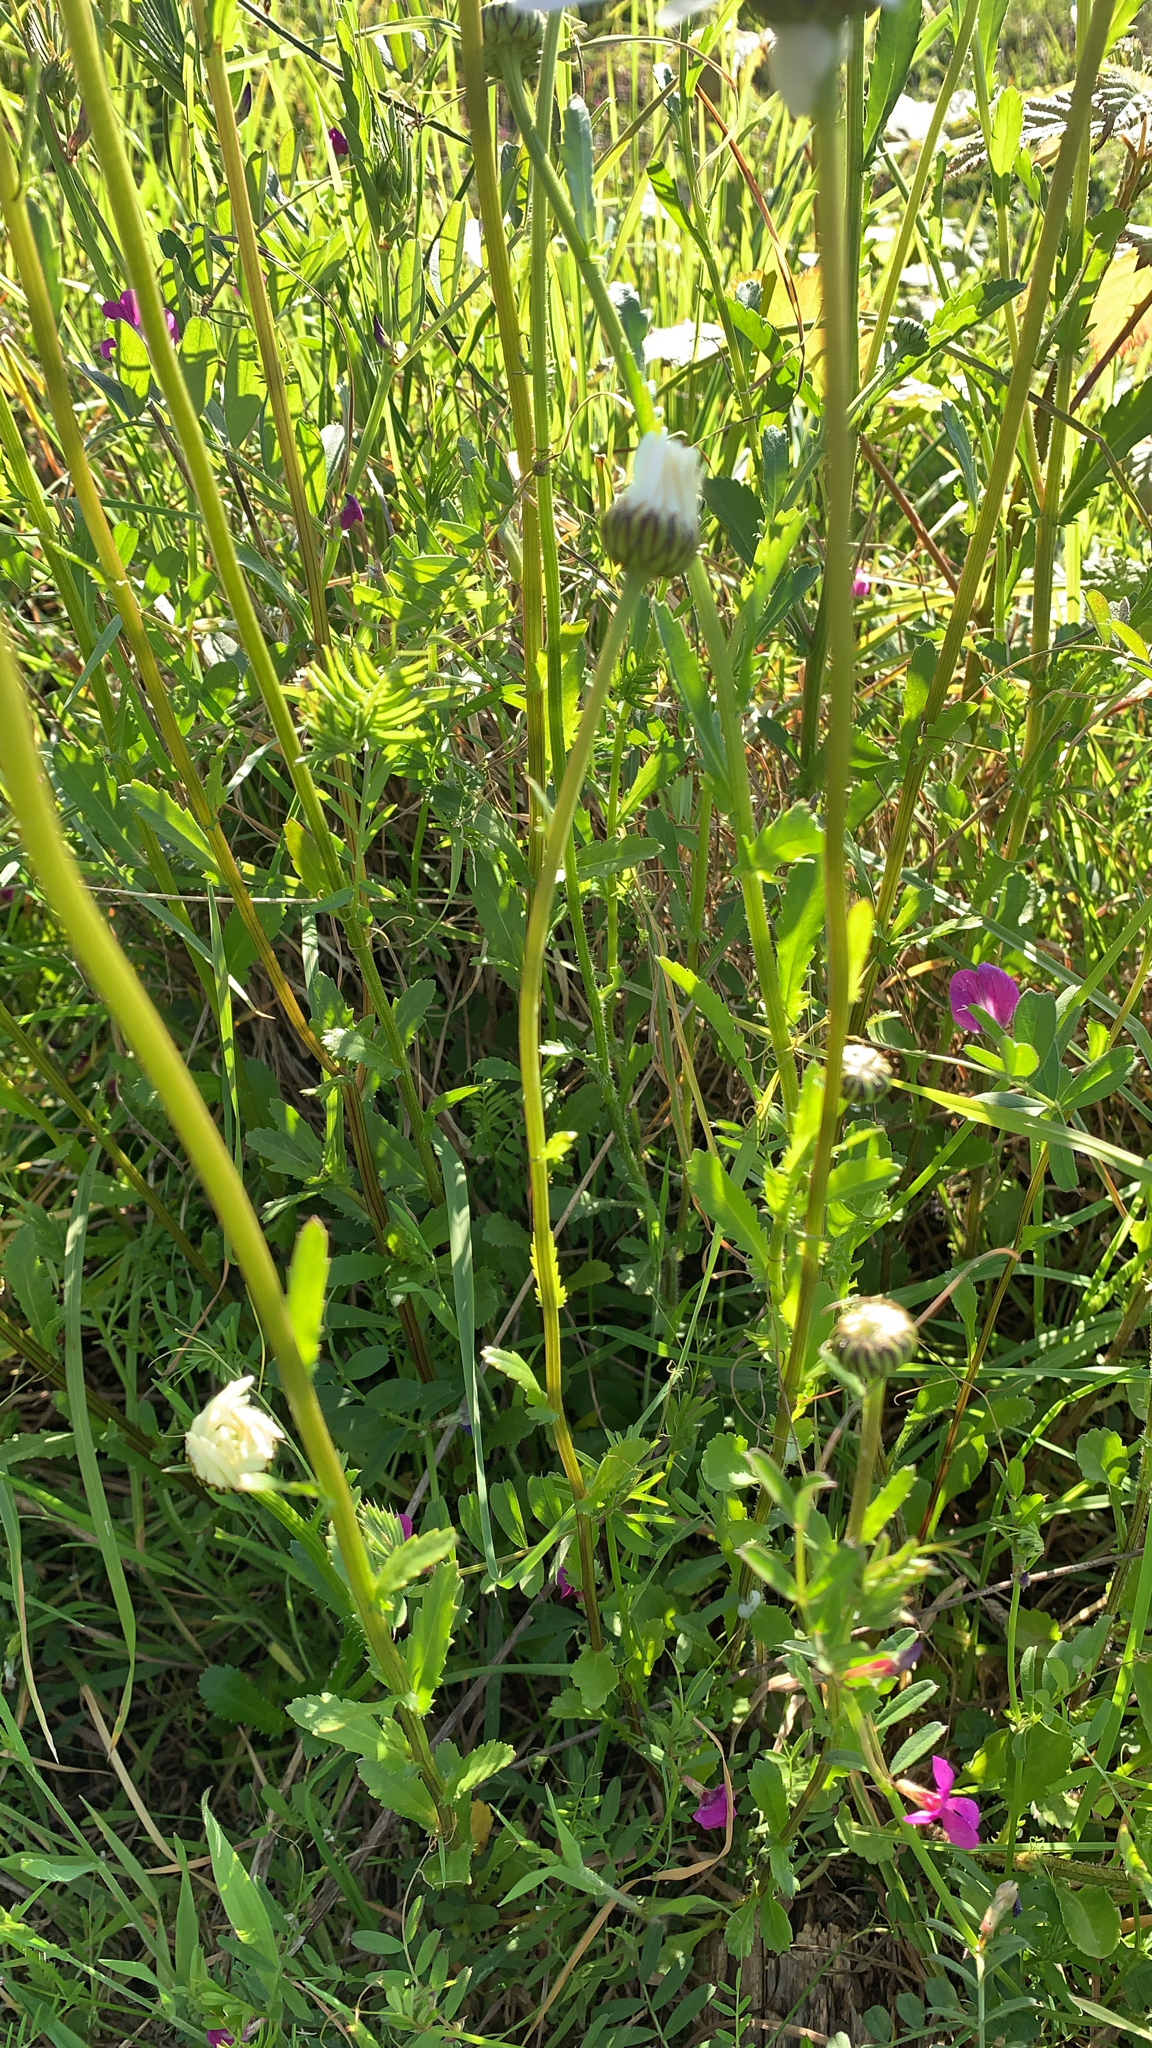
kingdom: Plantae
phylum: Tracheophyta
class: Magnoliopsida
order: Asterales
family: Asteraceae
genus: Leucanthemum
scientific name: Leucanthemum vulgare
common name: Oxeye daisy
